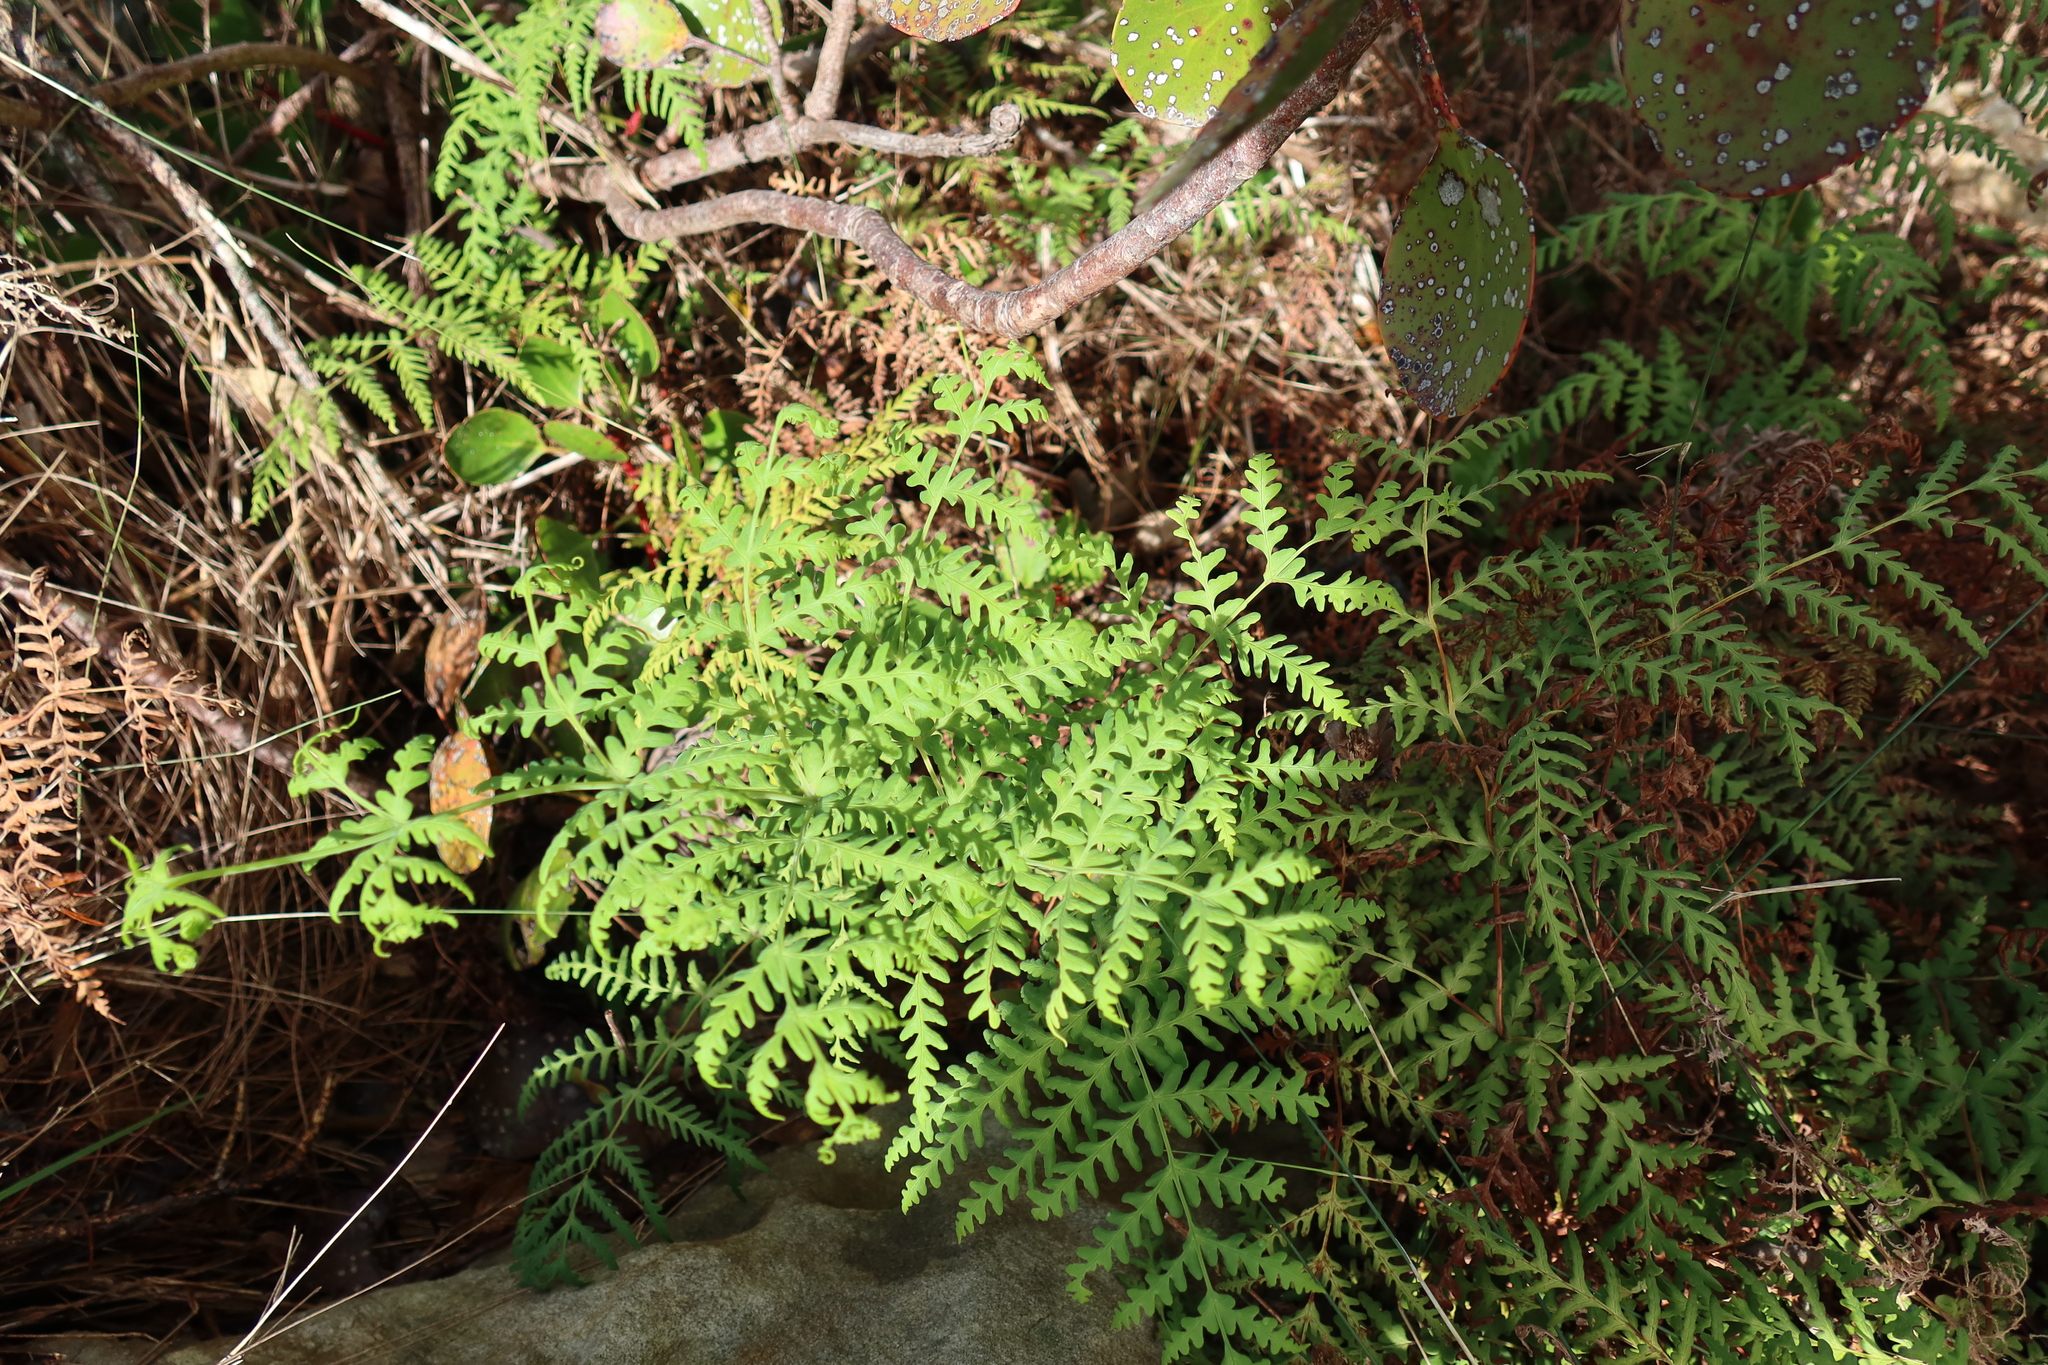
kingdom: Plantae
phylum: Tracheophyta
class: Polypodiopsida
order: Polypodiales
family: Dennstaedtiaceae
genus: Histiopteris
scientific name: Histiopteris incisa
